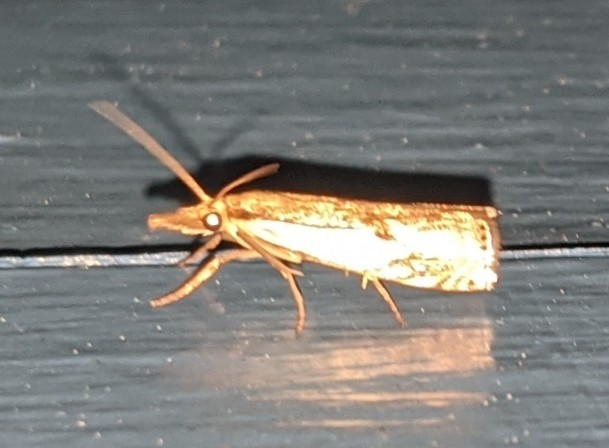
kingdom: Animalia
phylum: Arthropoda
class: Insecta
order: Lepidoptera
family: Crambidae
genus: Crambus
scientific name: Crambus agitatellus
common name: Double-banded grass-veneer
